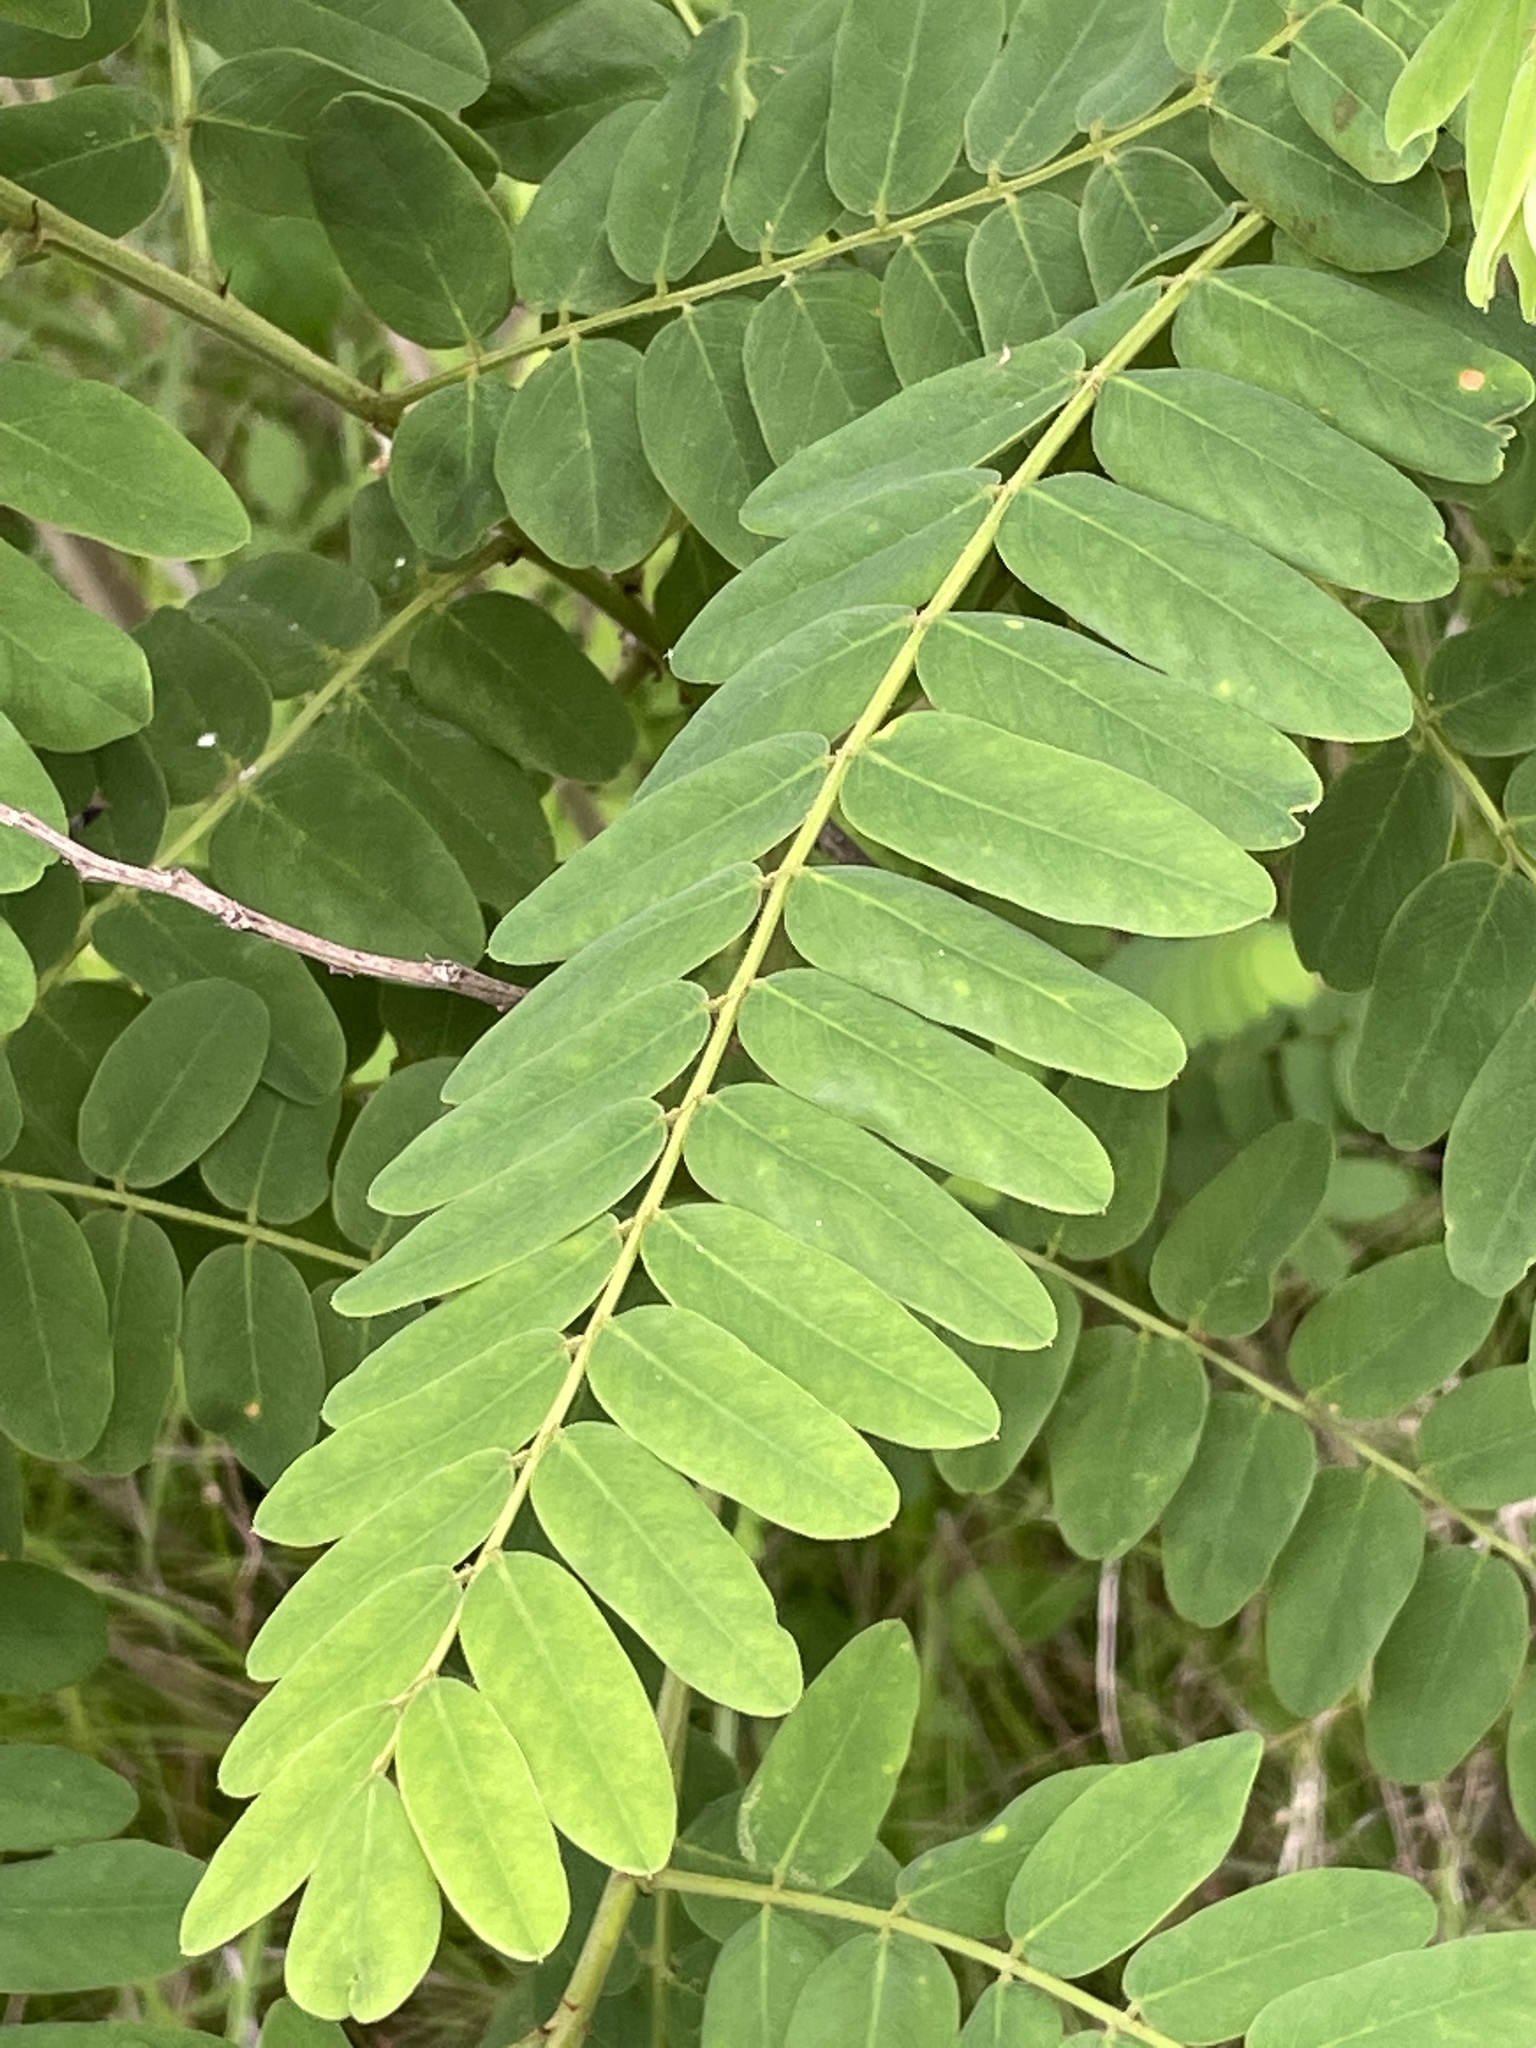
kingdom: Plantae
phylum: Tracheophyta
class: Magnoliopsida
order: Fabales
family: Fabaceae
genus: Amorpha
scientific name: Amorpha fruticosa
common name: False indigo
